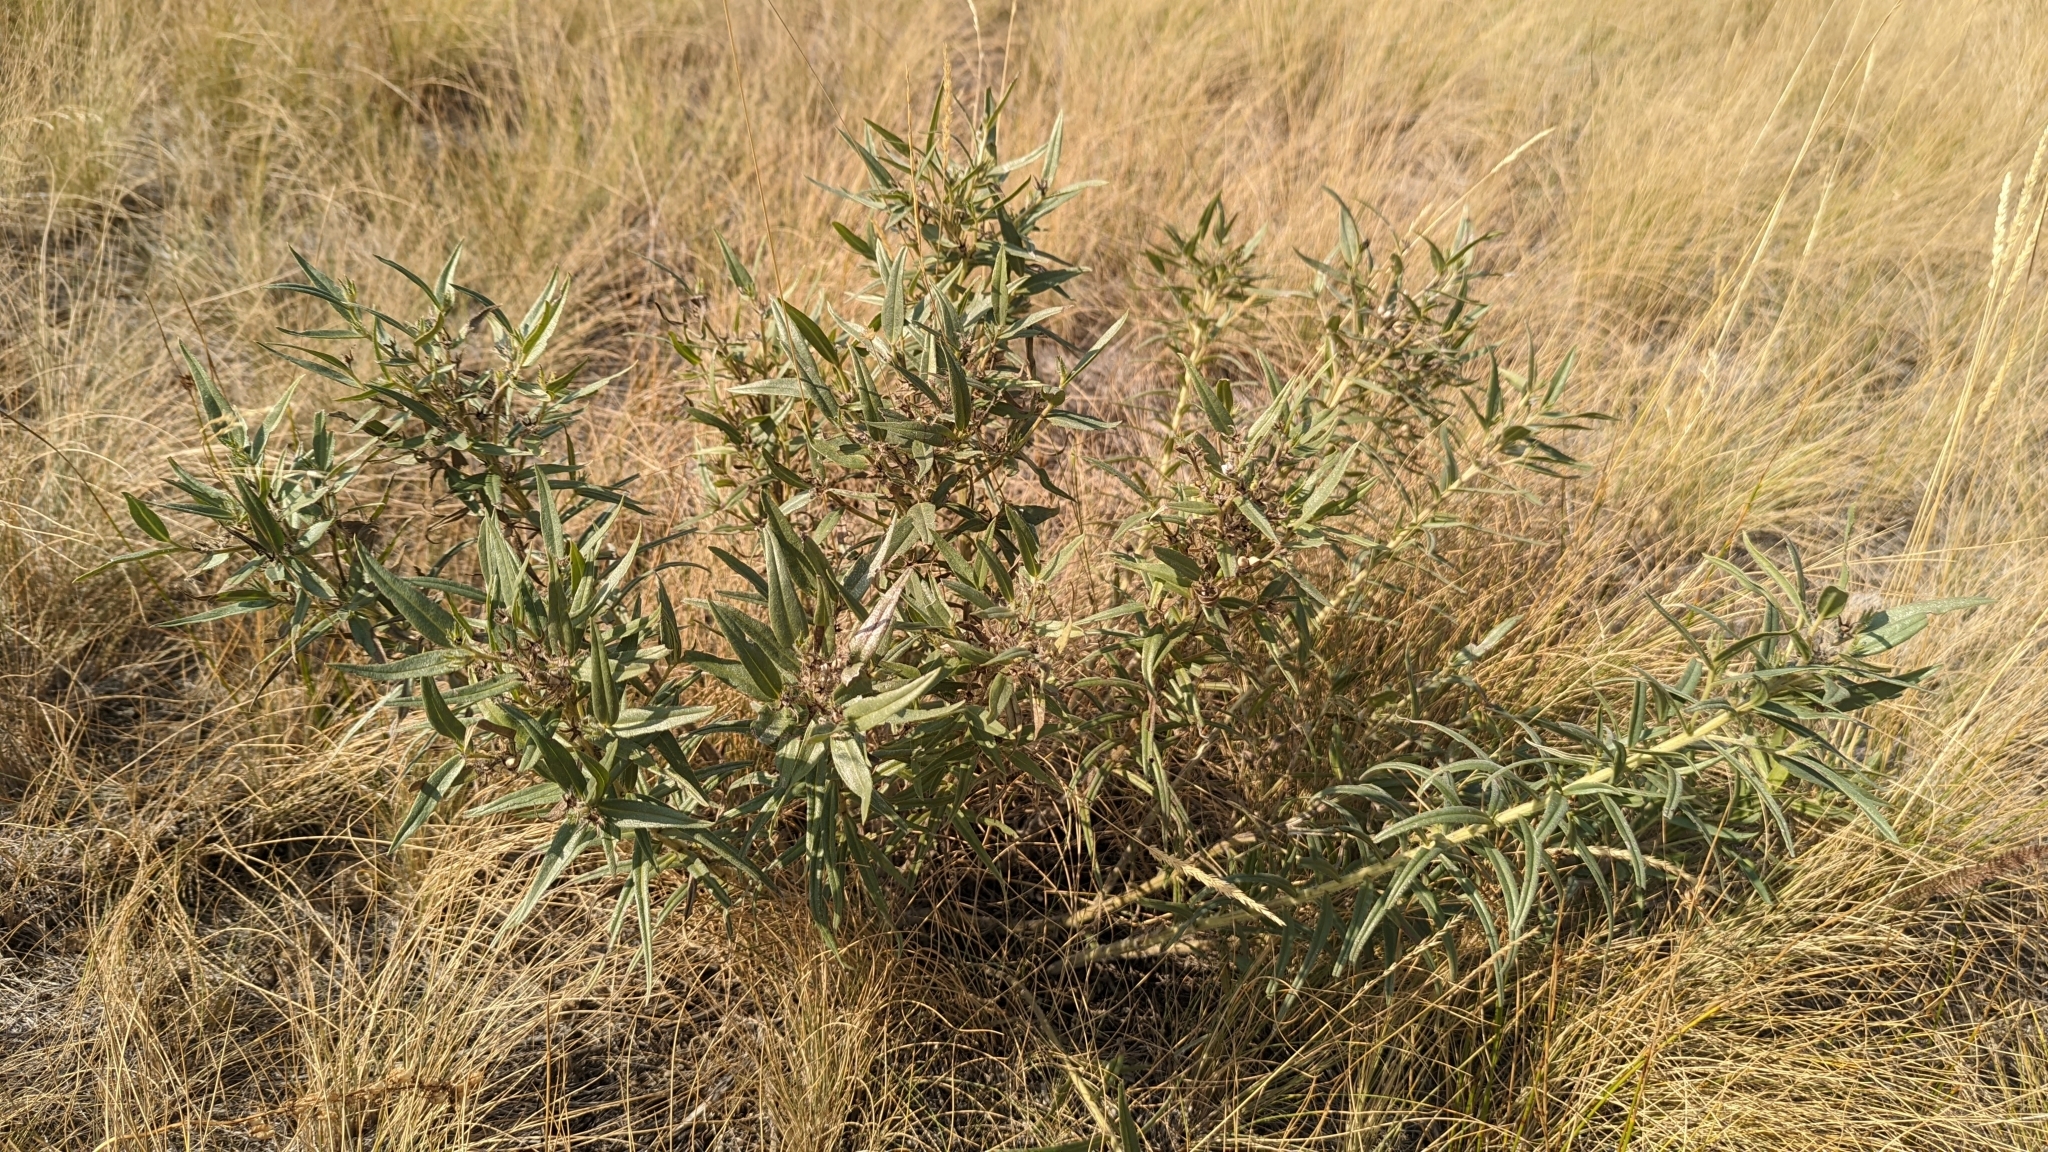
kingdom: Plantae
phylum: Tracheophyta
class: Magnoliopsida
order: Boraginales
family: Boraginaceae
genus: Lithospermum
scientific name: Lithospermum ruderale
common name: Western gromwell
